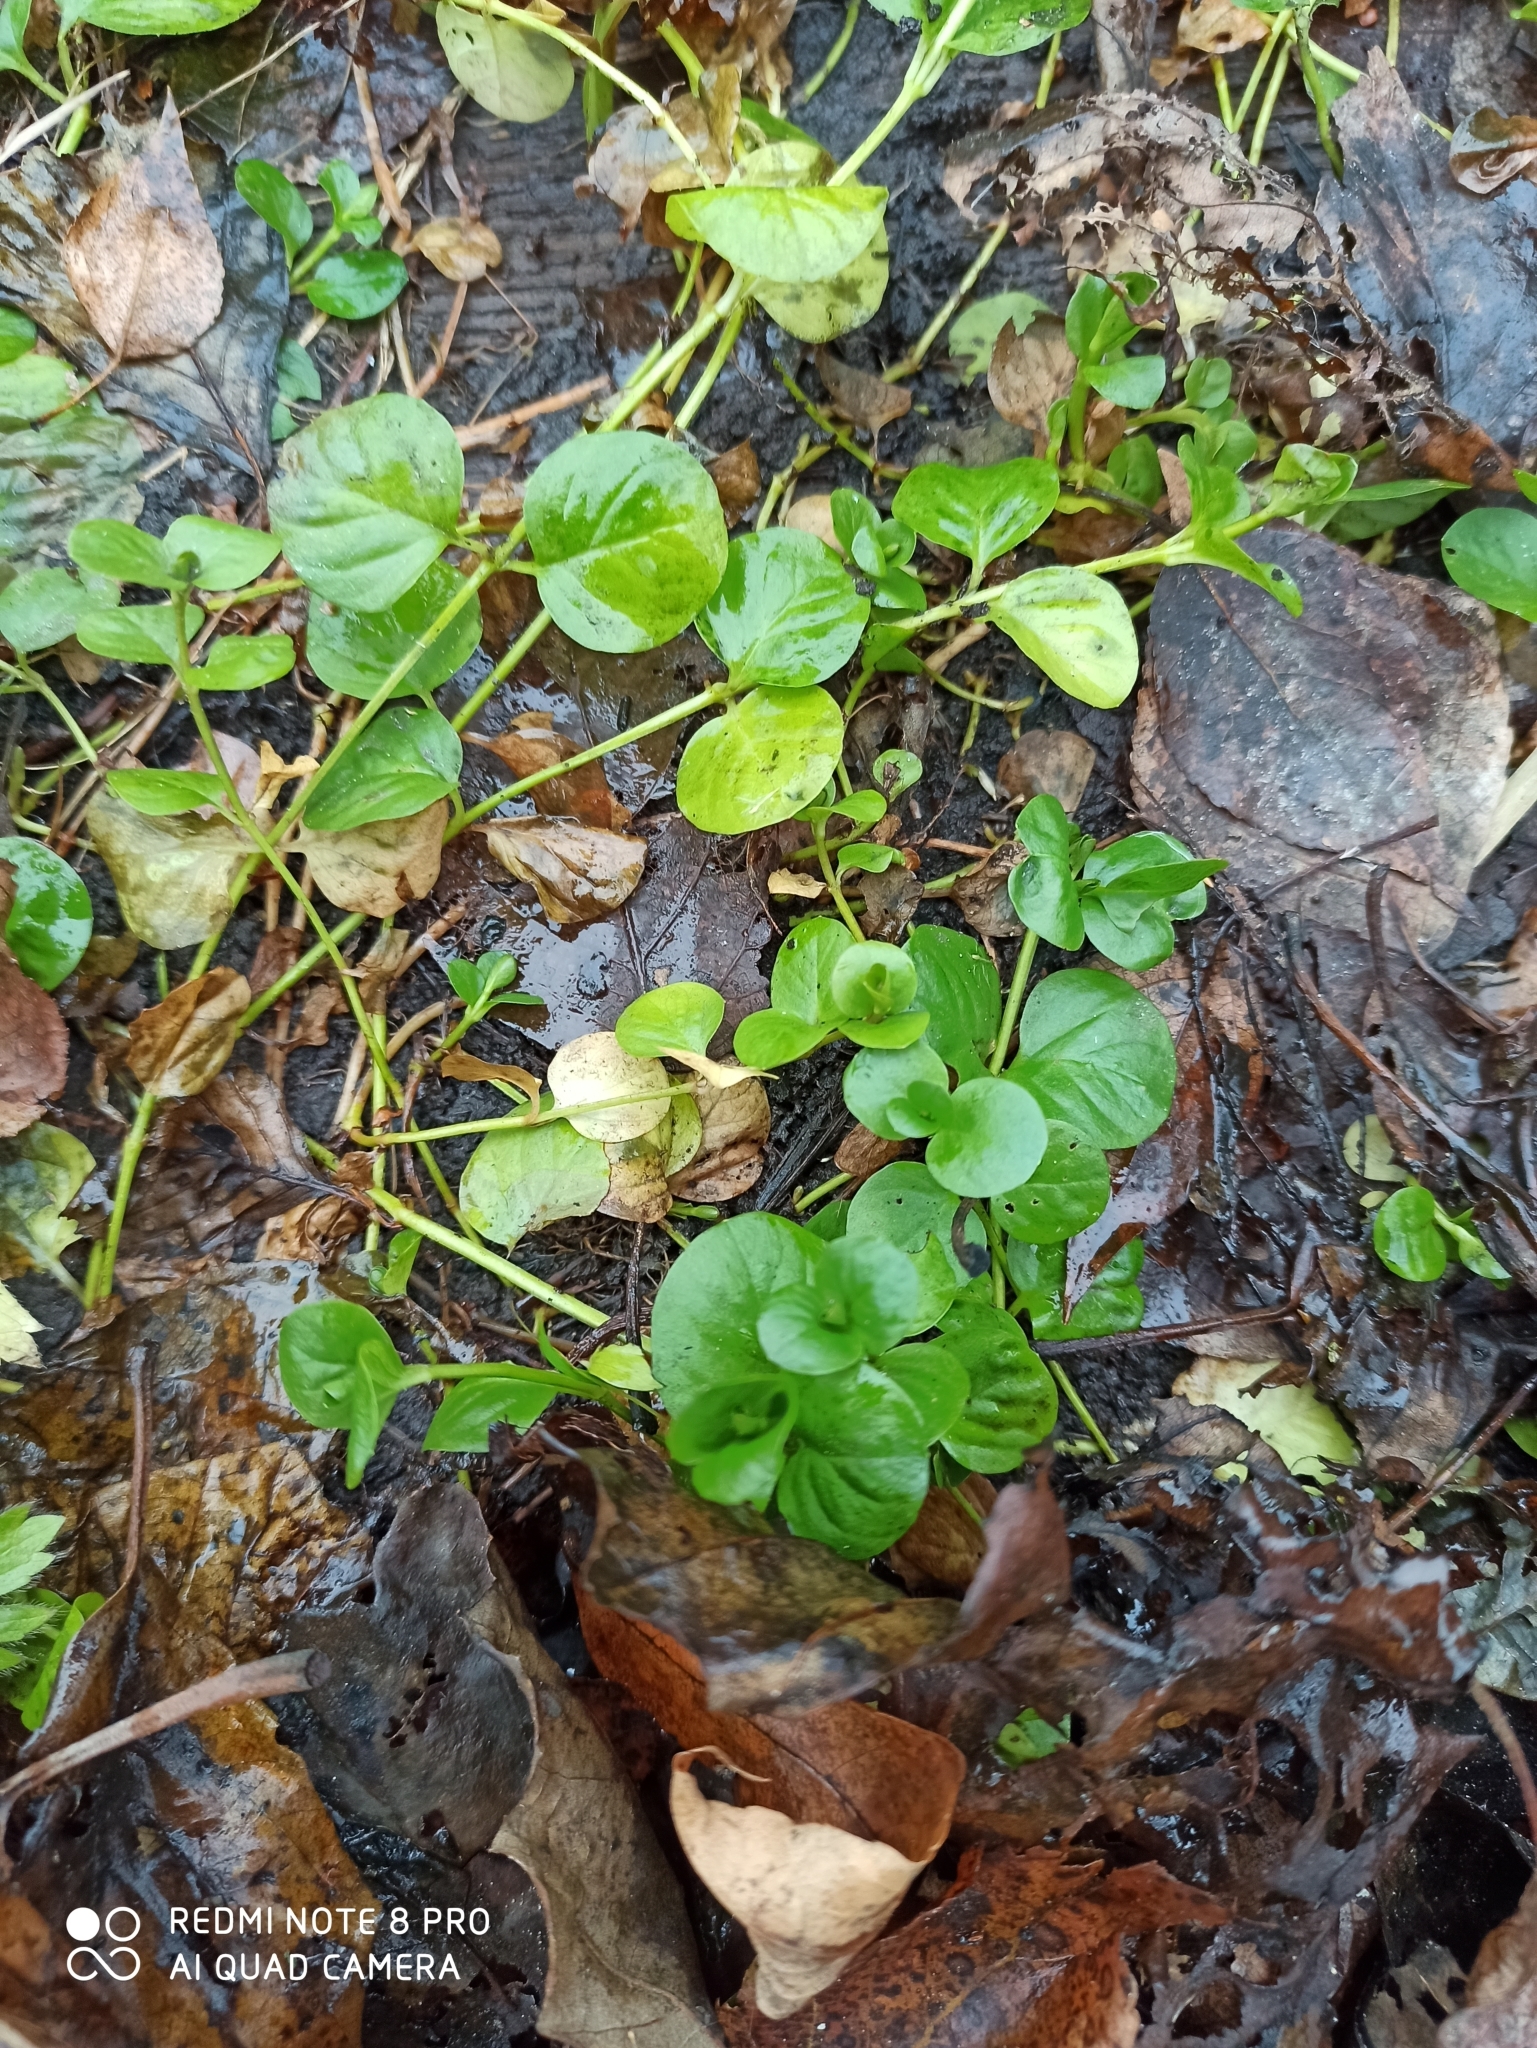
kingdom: Plantae
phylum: Tracheophyta
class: Magnoliopsida
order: Ericales
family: Primulaceae
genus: Lysimachia
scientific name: Lysimachia nummularia
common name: Moneywort
